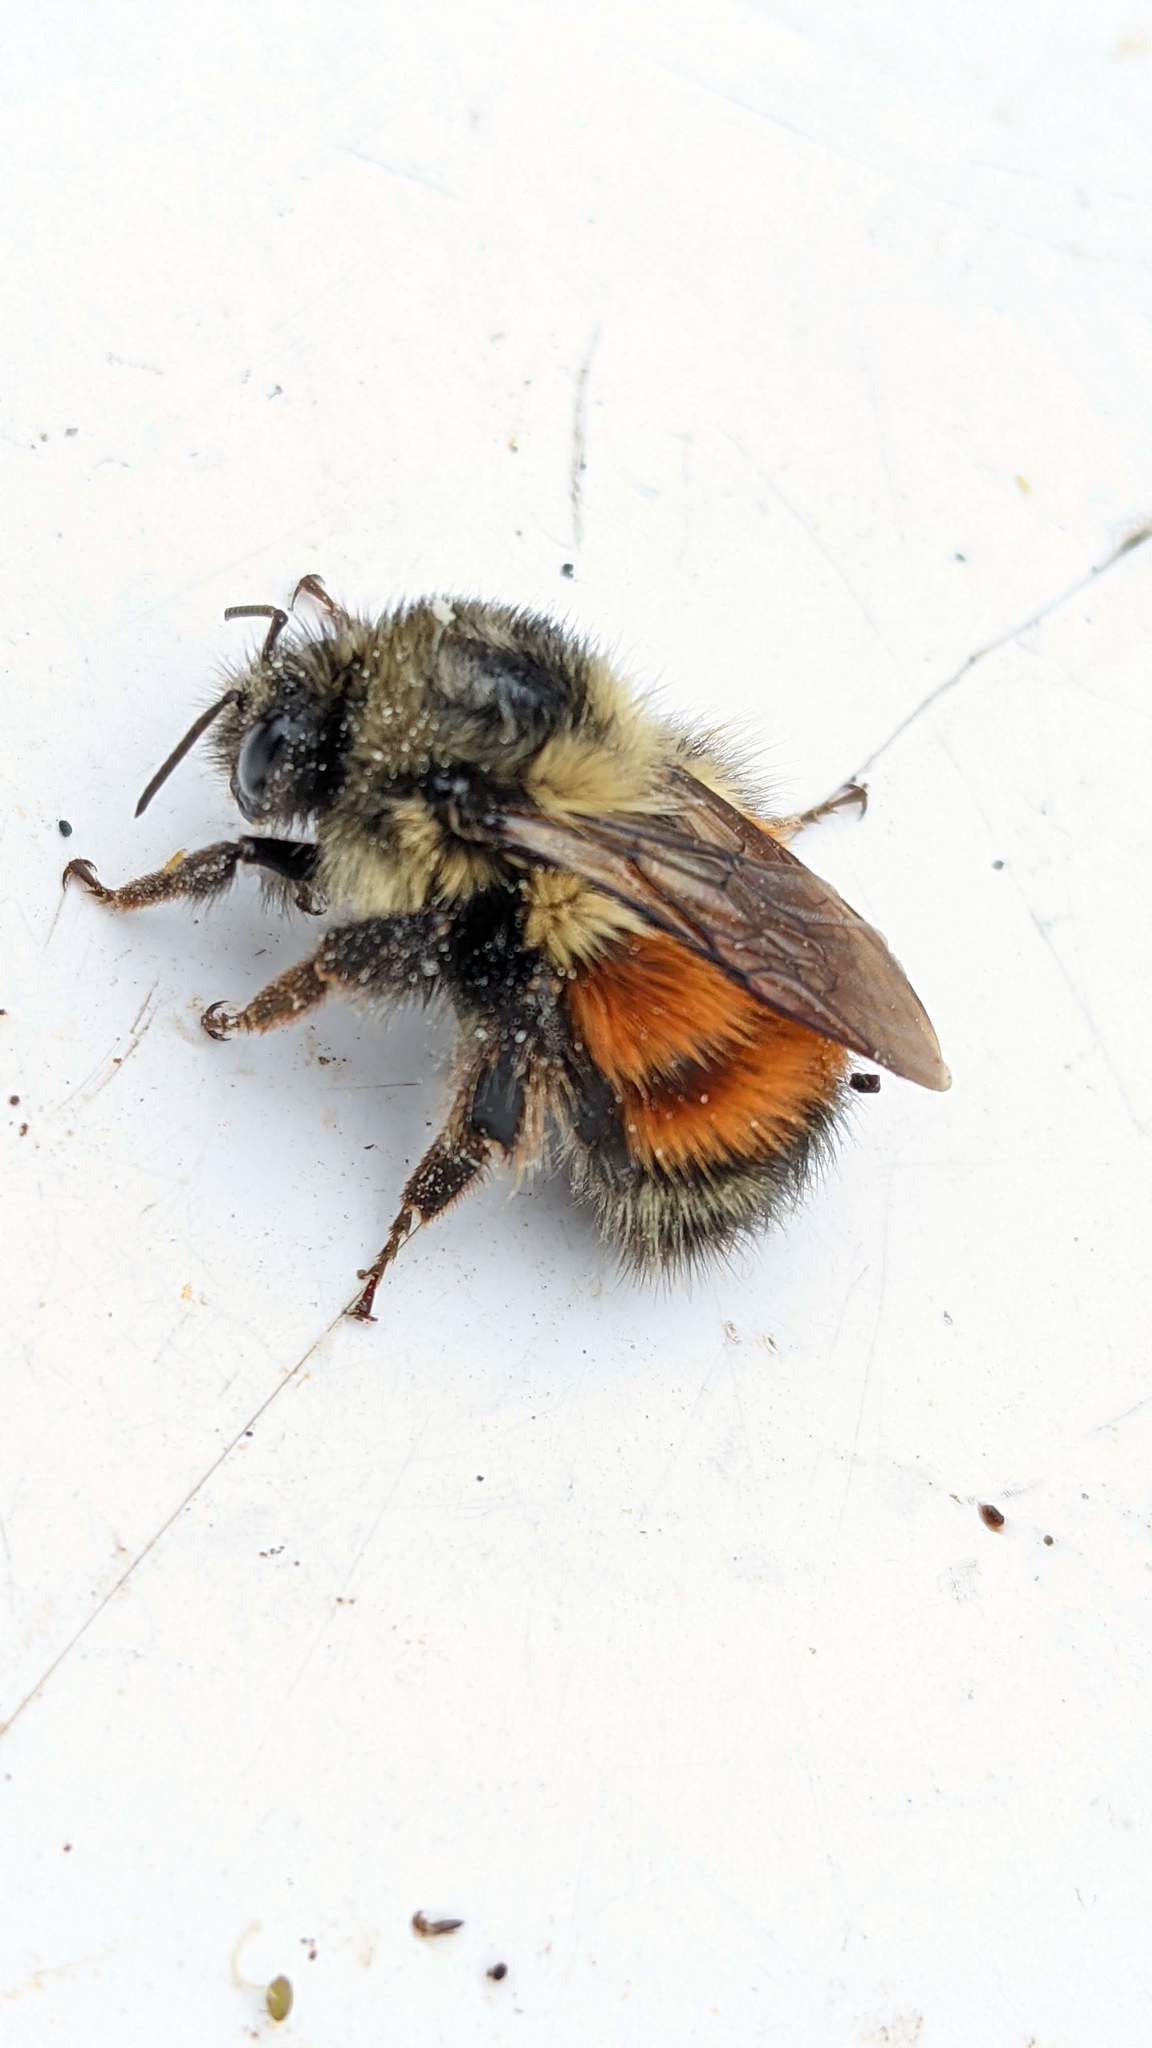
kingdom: Animalia
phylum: Arthropoda
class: Insecta
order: Hymenoptera
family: Apidae
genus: Bombus
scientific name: Bombus melanopygus
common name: Black tail bumble bee
